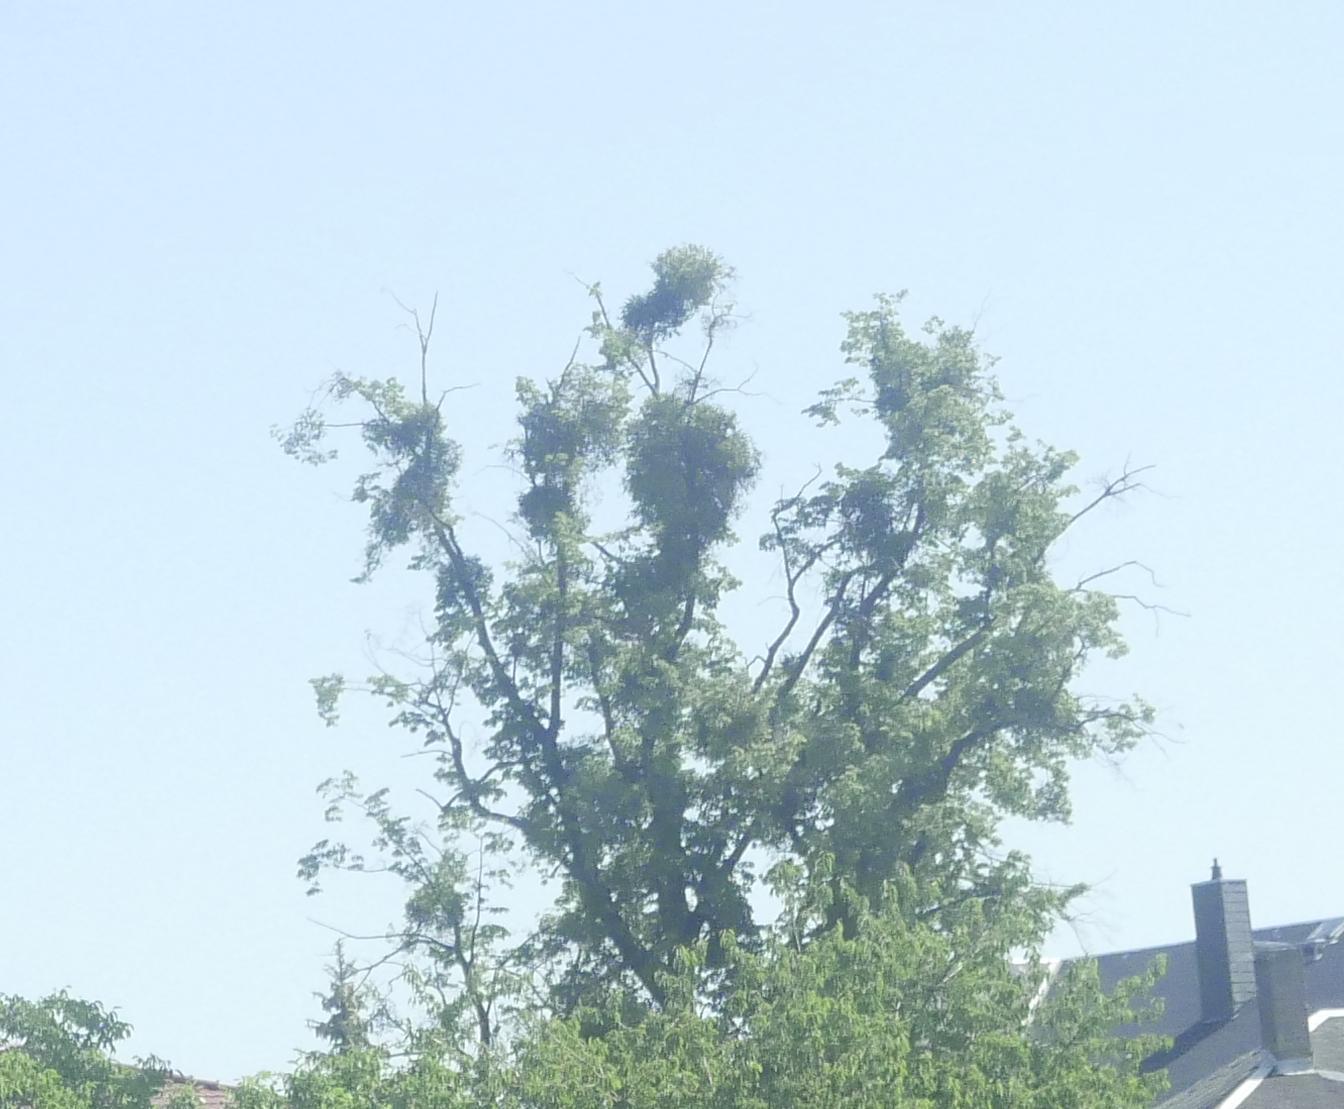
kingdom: Plantae
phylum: Tracheophyta
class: Magnoliopsida
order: Santalales
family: Viscaceae
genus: Viscum
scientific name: Viscum album
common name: Mistletoe
